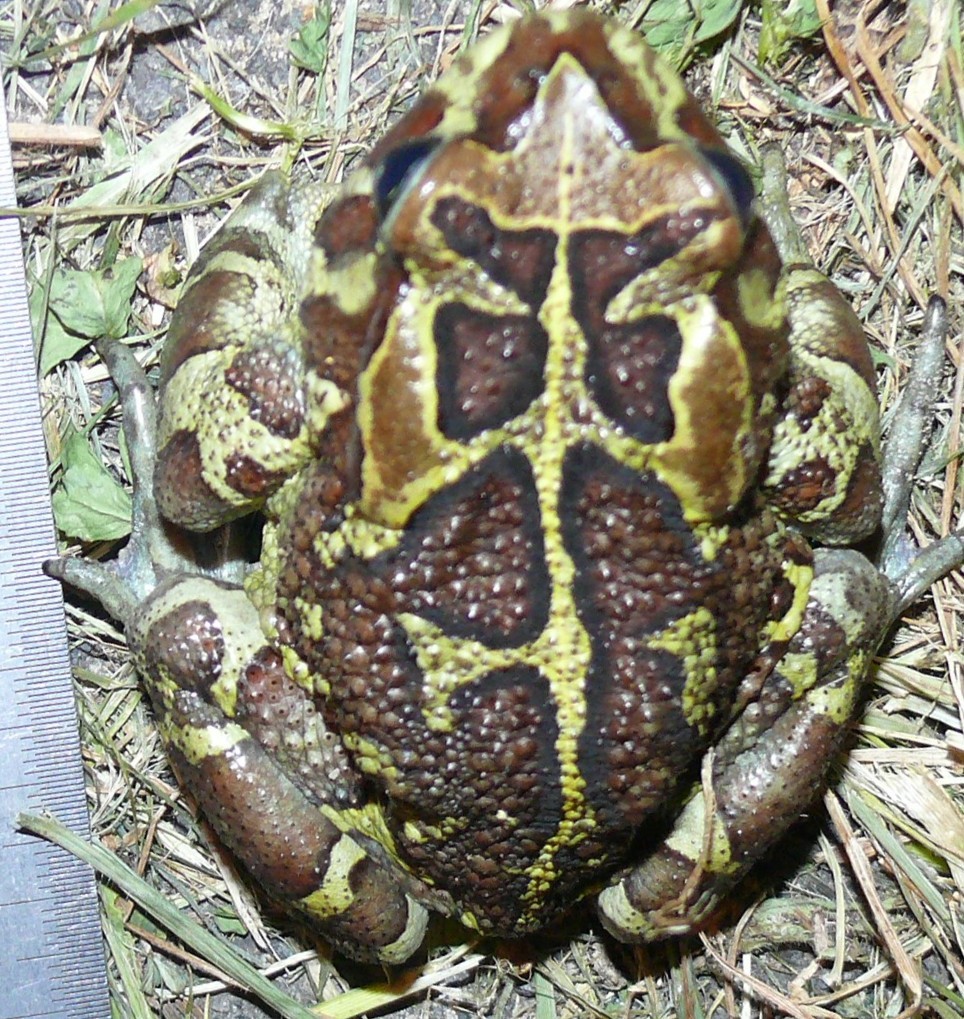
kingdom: Animalia
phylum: Chordata
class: Amphibia
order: Anura
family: Bufonidae
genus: Sclerophrys
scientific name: Sclerophrys pantherina
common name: Panther toad
